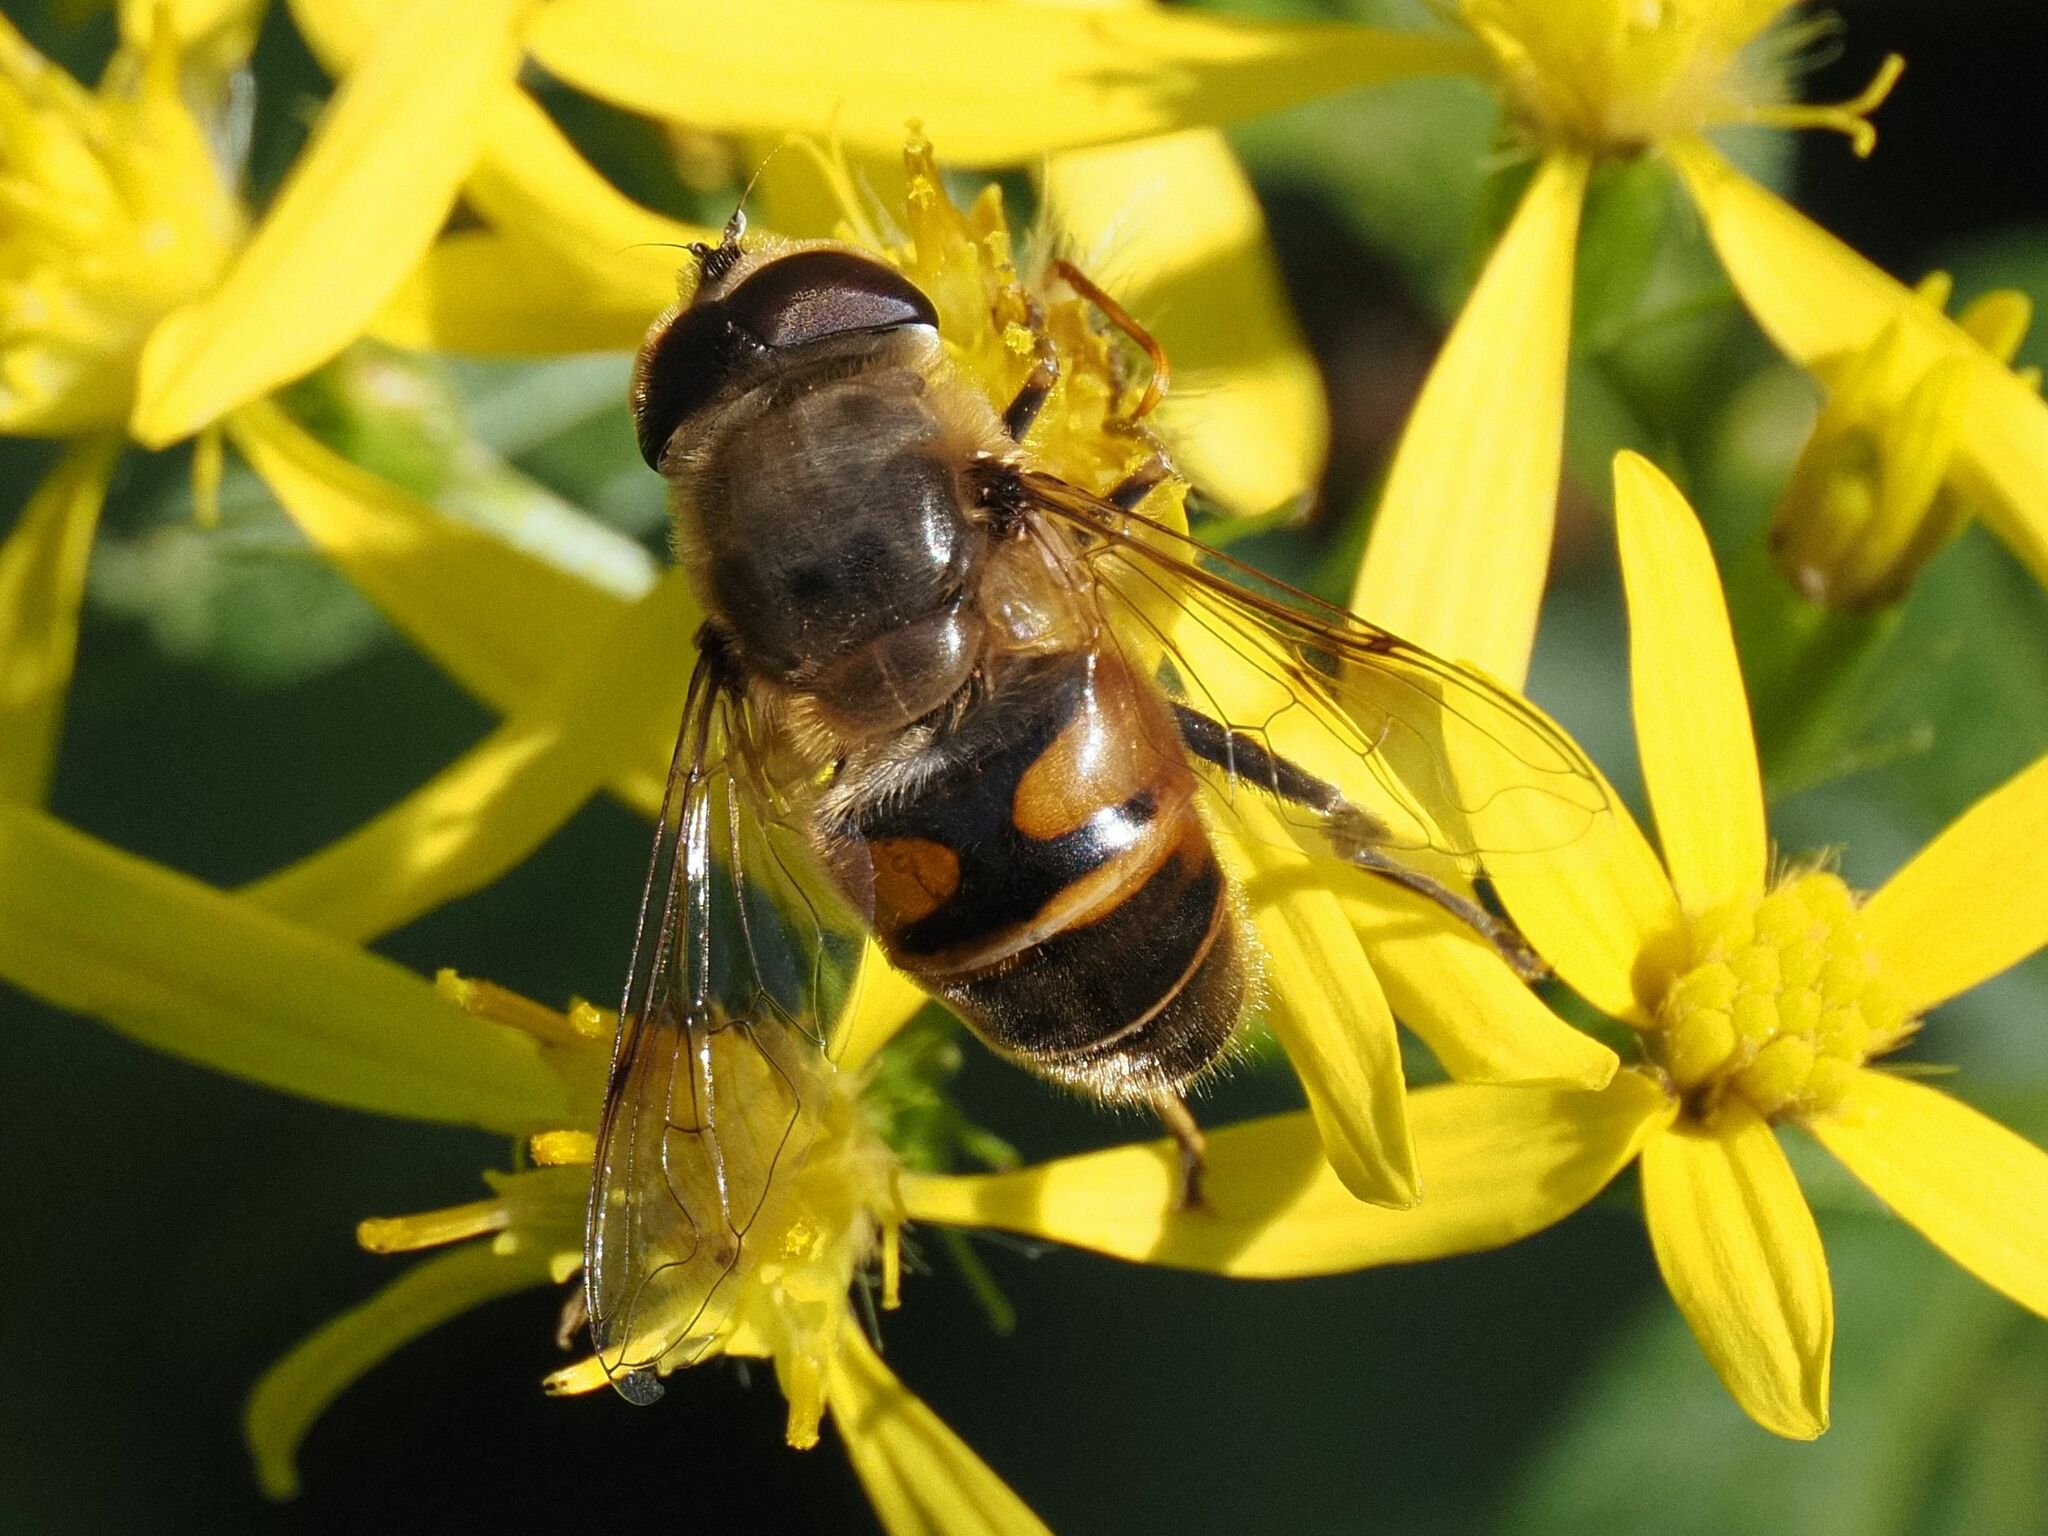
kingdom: Animalia
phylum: Arthropoda
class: Insecta
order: Diptera
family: Syrphidae
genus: Eristalis
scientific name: Eristalis tenax
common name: Drone fly
